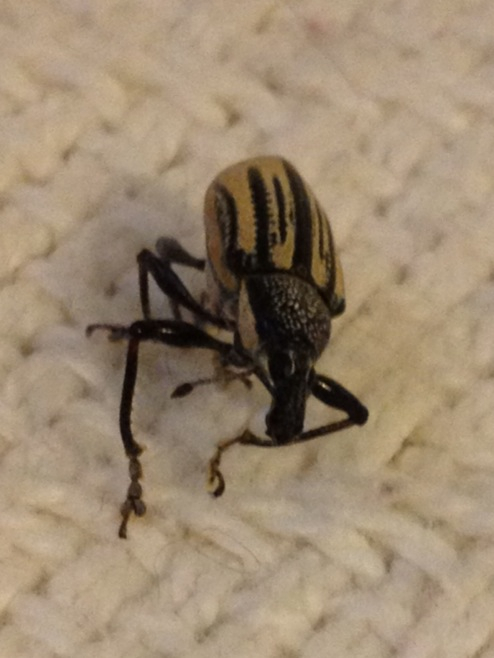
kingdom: Animalia
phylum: Arthropoda
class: Insecta
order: Coleoptera
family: Curculionidae
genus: Diaprepes
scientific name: Diaprepes abbreviatus
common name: Root weevil
